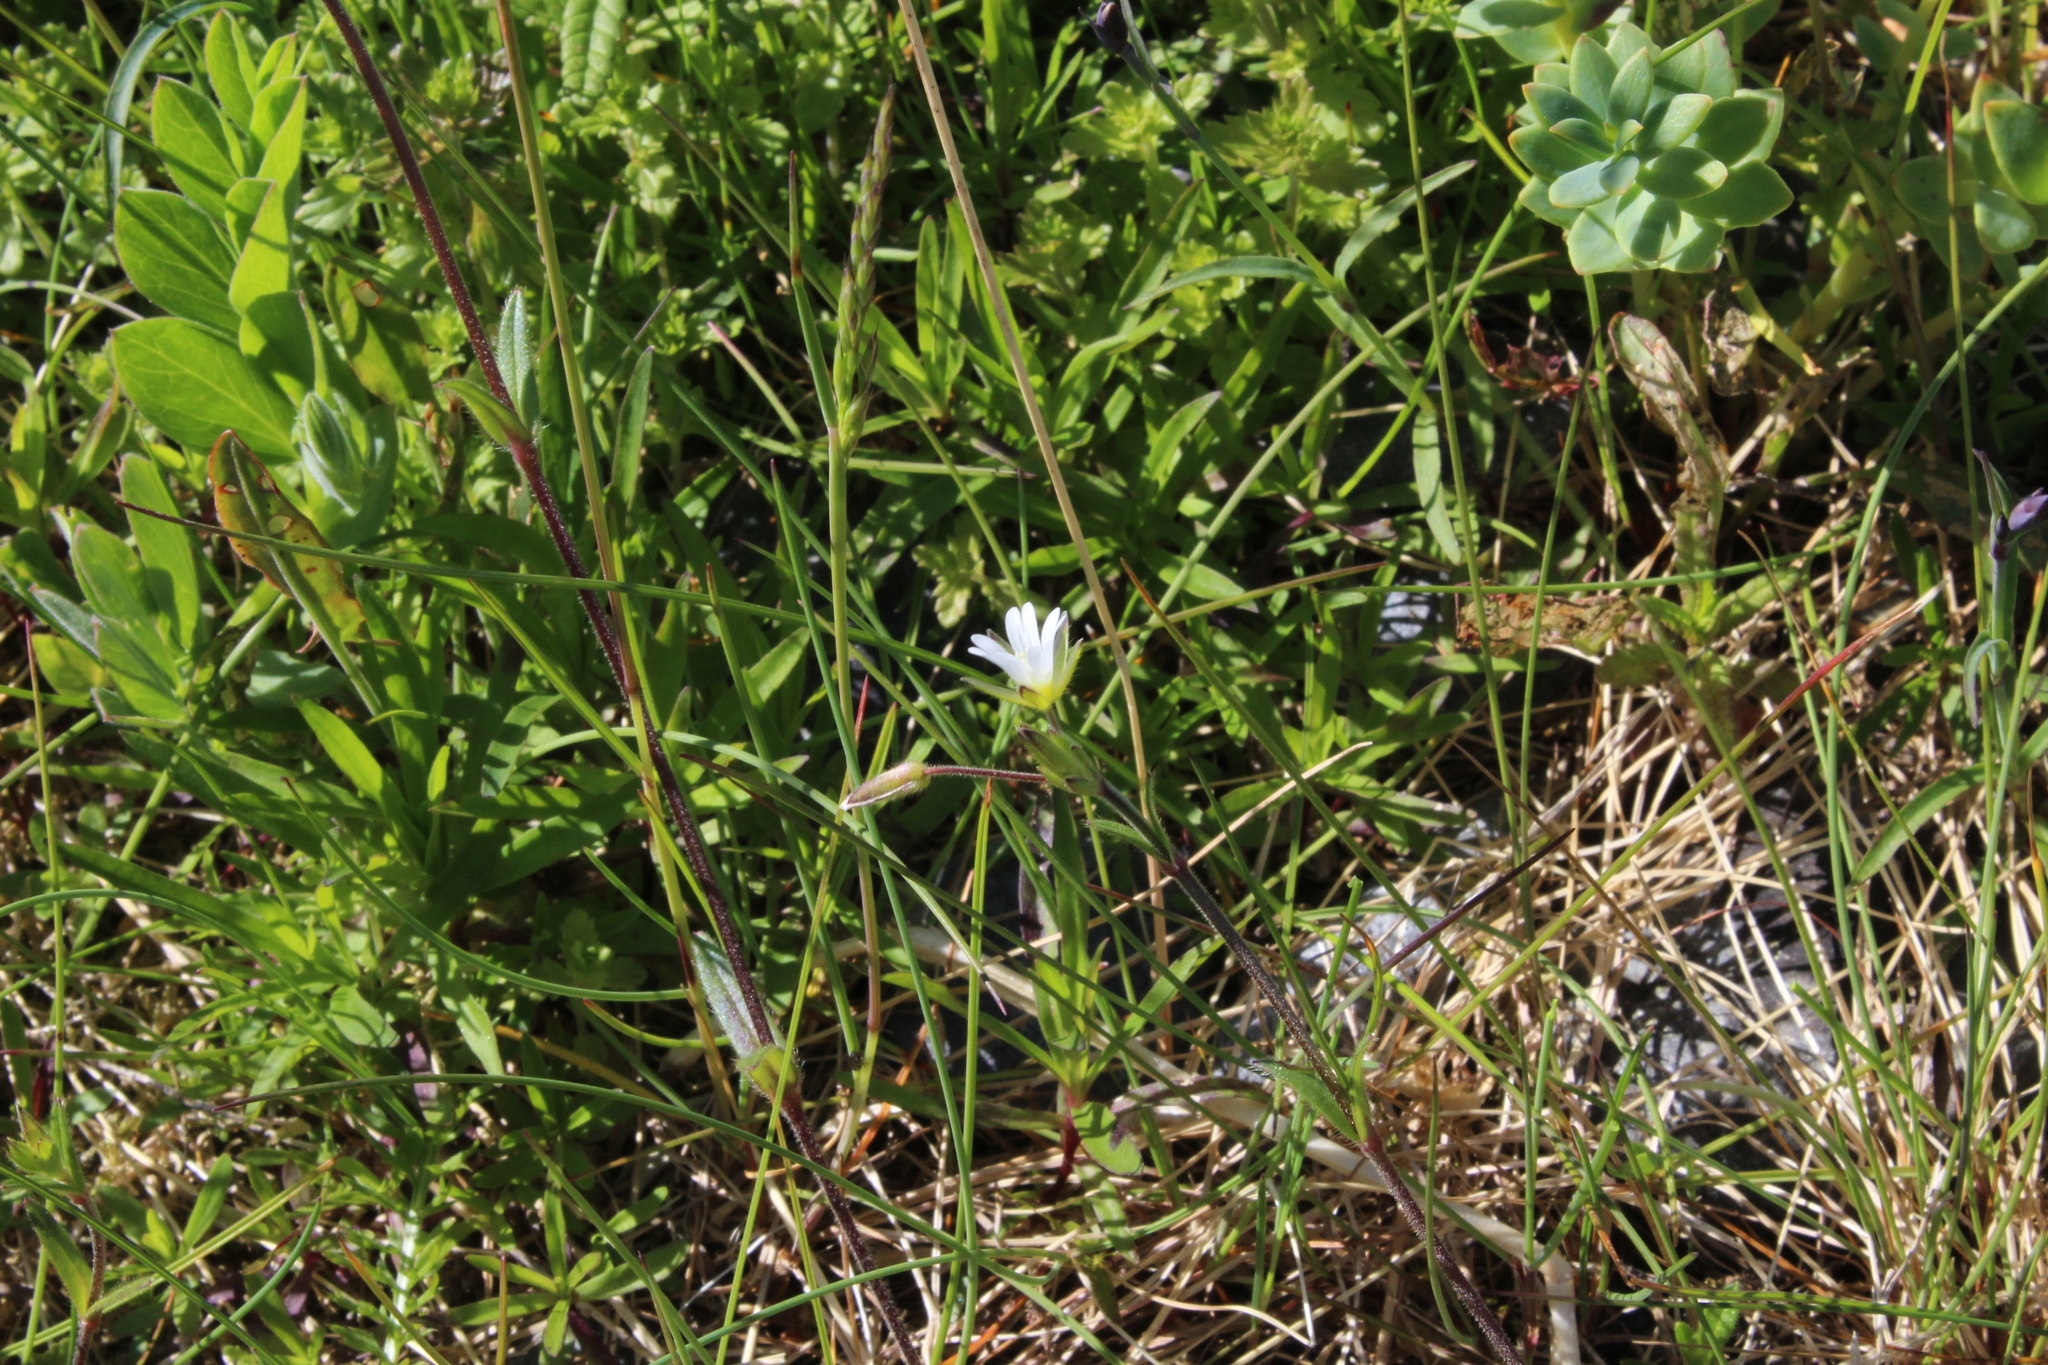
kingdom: Plantae
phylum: Tracheophyta
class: Magnoliopsida
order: Caryophyllales
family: Caryophyllaceae
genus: Cerastium
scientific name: Cerastium fontanum
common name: Common mouse-ear
